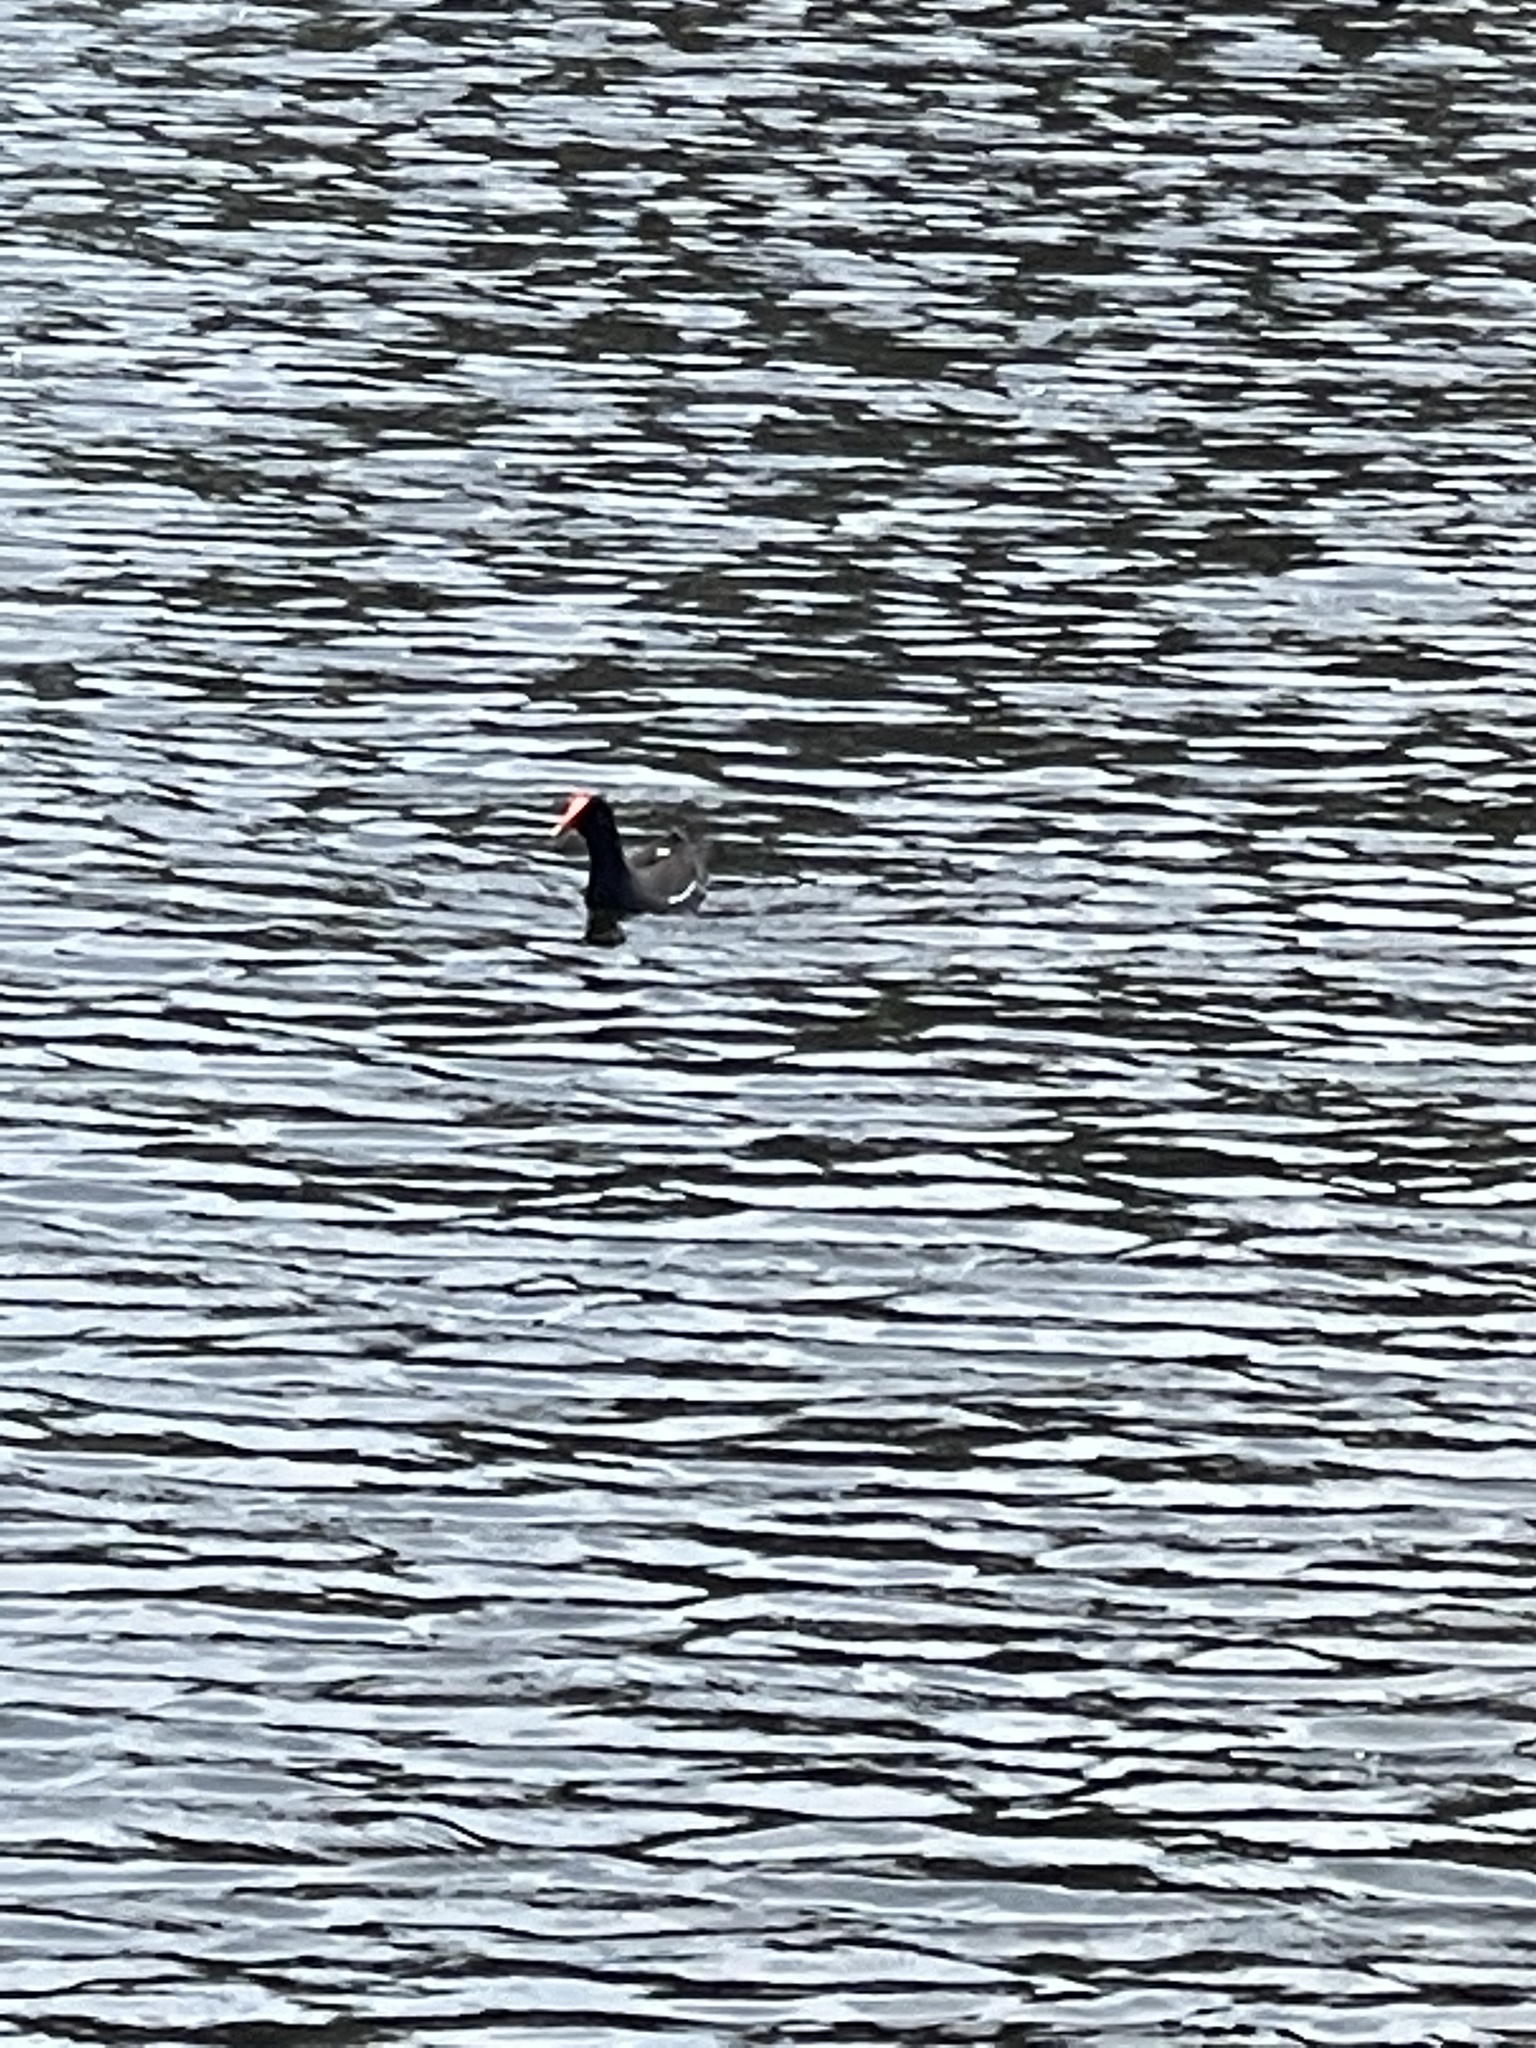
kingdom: Animalia
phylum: Chordata
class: Aves
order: Gruiformes
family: Rallidae
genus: Gallinula
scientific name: Gallinula chloropus
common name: Common moorhen
